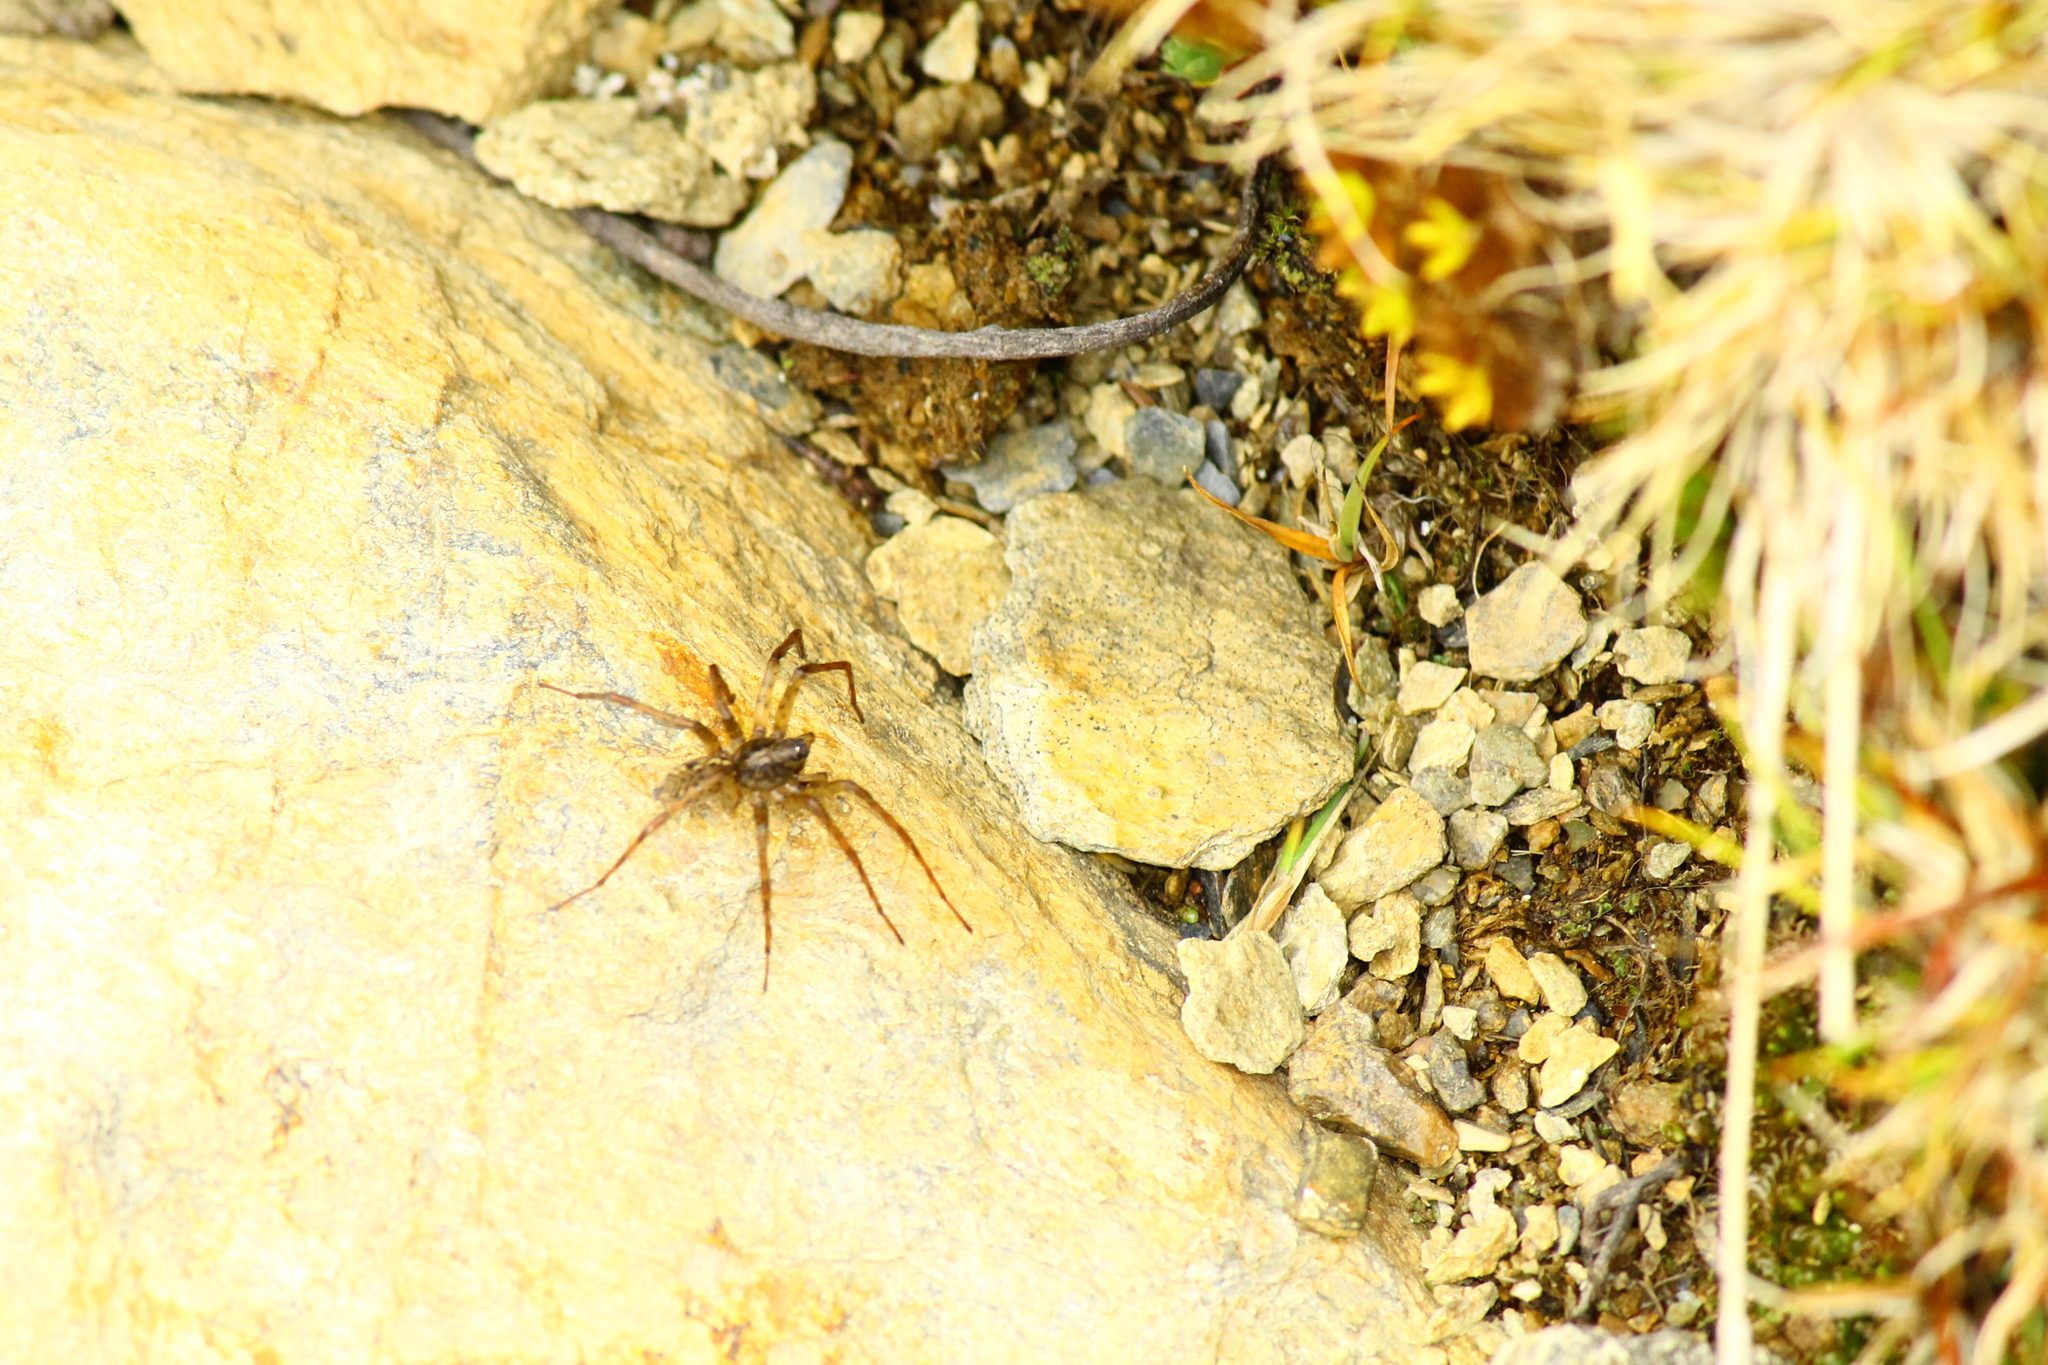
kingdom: Animalia
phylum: Arthropoda
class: Arachnida
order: Araneae
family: Amaurobiidae
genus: Emmenomma
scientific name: Emmenomma oculatum
